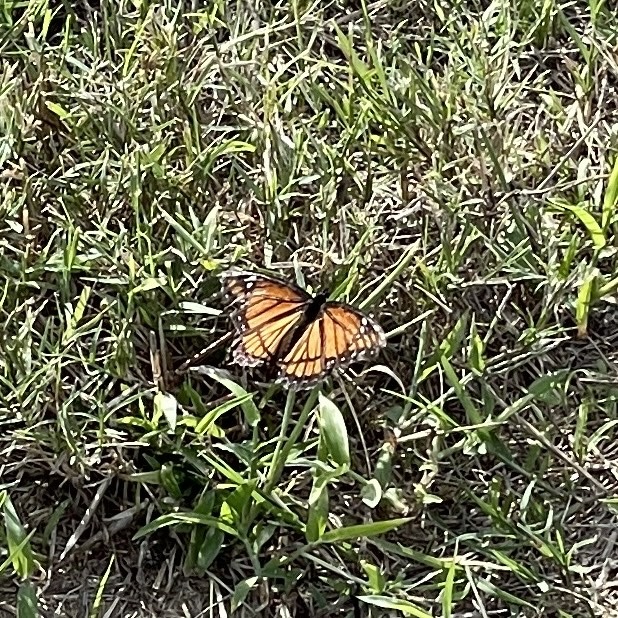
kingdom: Animalia
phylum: Arthropoda
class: Insecta
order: Lepidoptera
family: Nymphalidae
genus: Limenitis
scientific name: Limenitis archippus
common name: Viceroy
